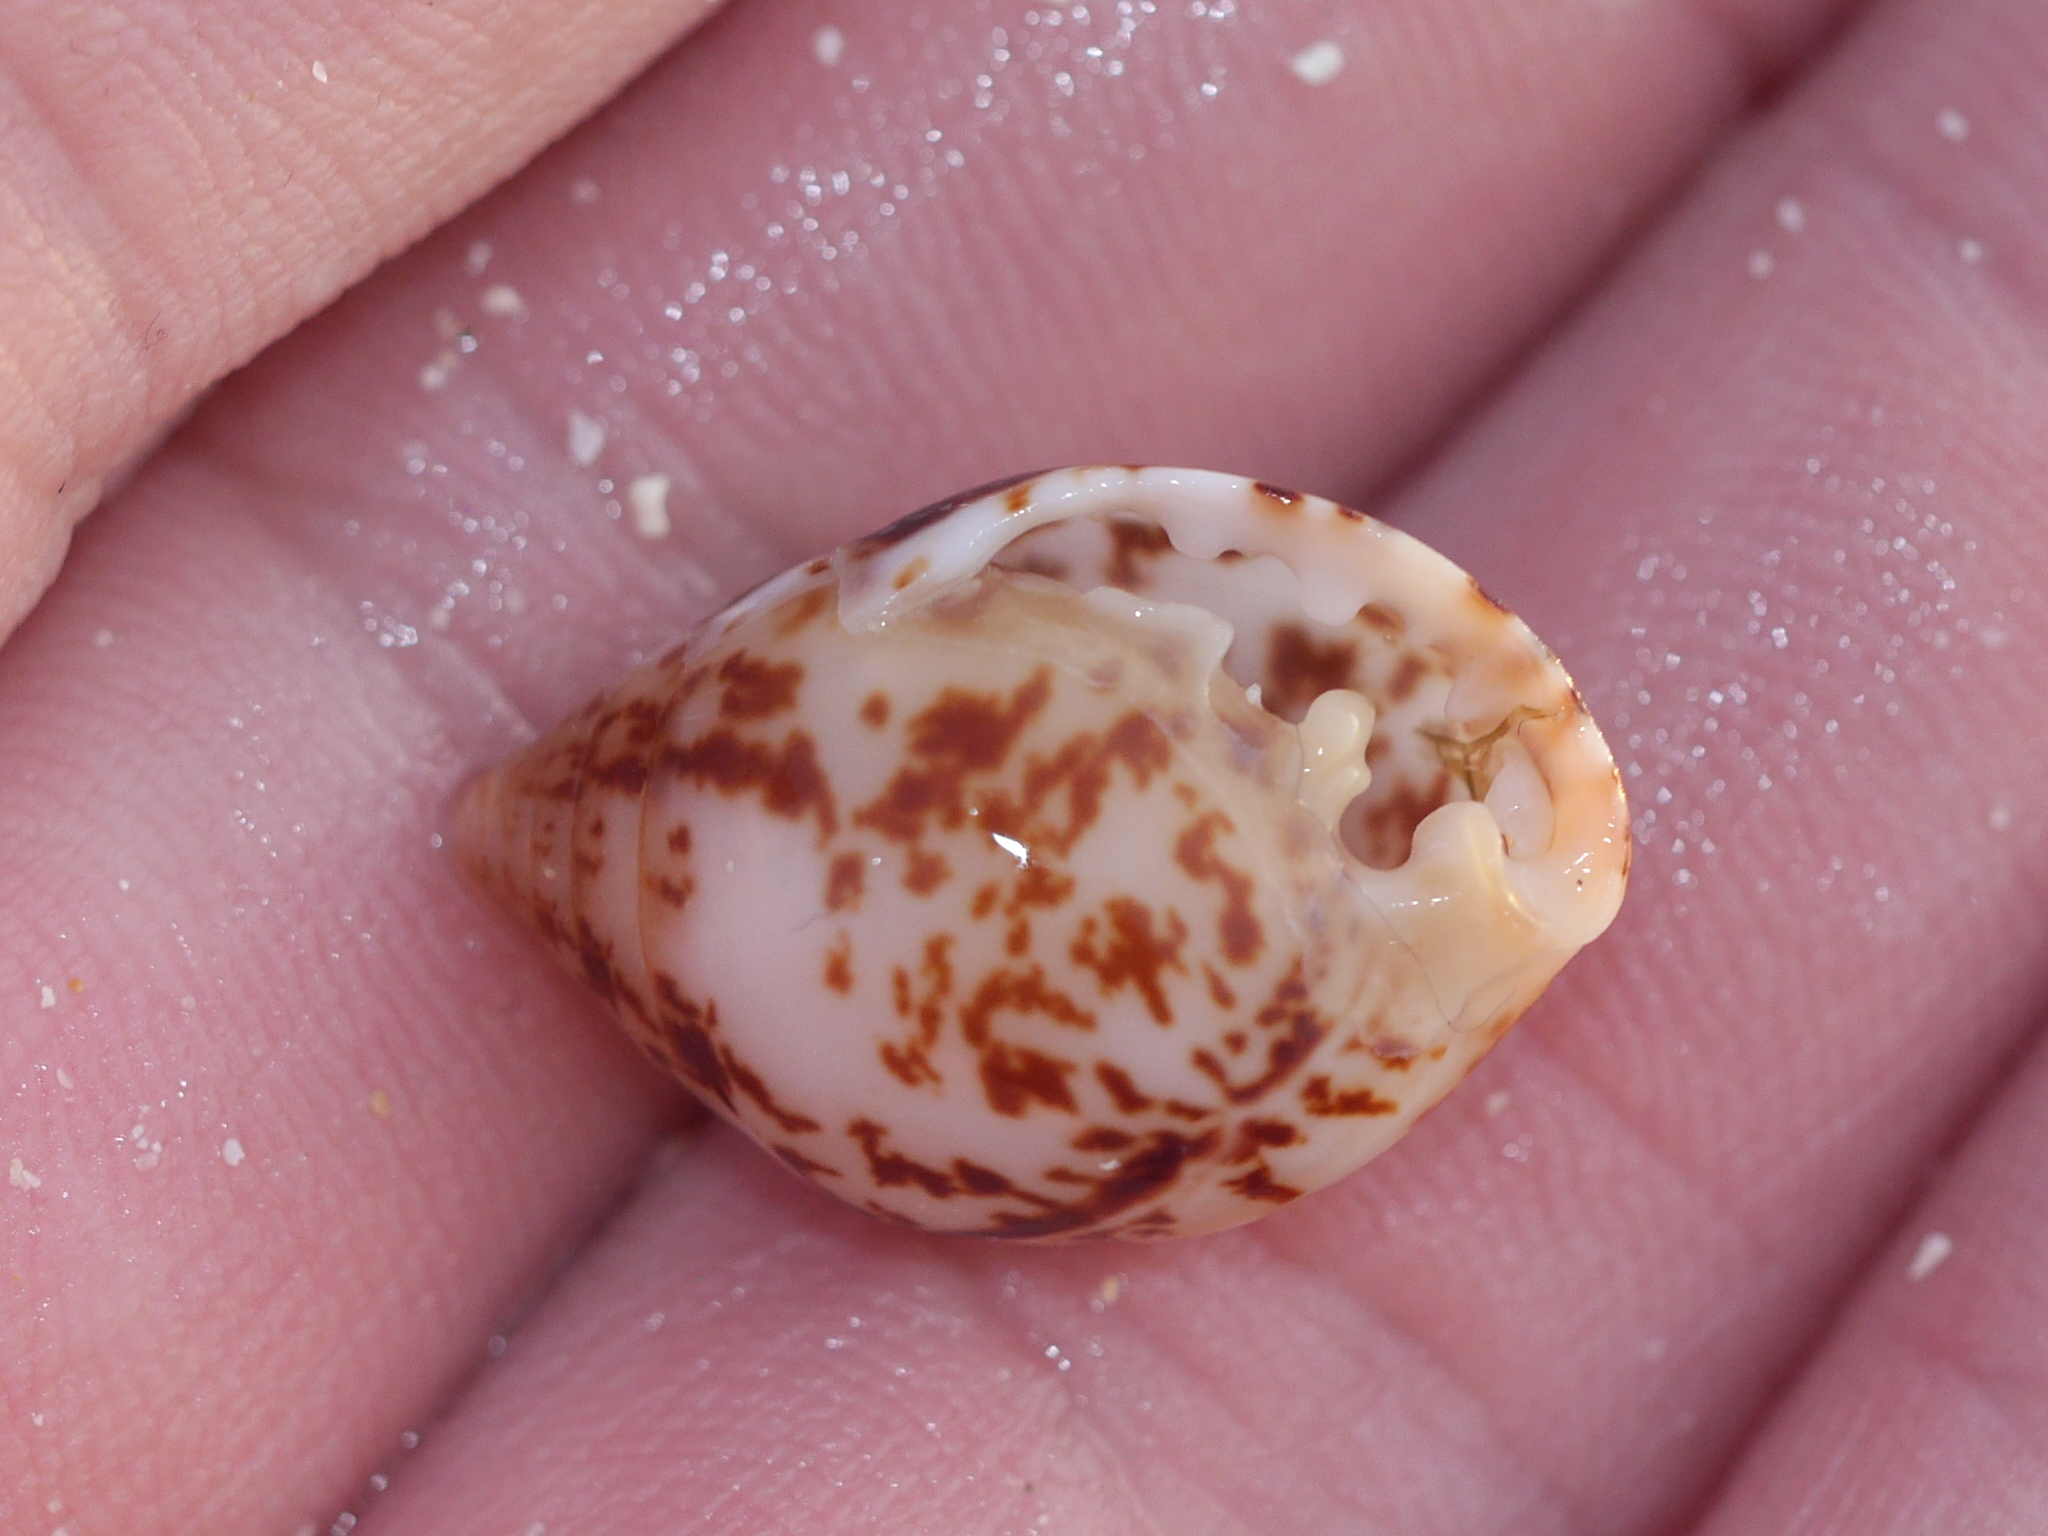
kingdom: Animalia
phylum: Mollusca
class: Gastropoda
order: Ellobiida
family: Ellobiidae
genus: Pythia
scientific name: Pythia scarabaeus
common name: Common pythia
